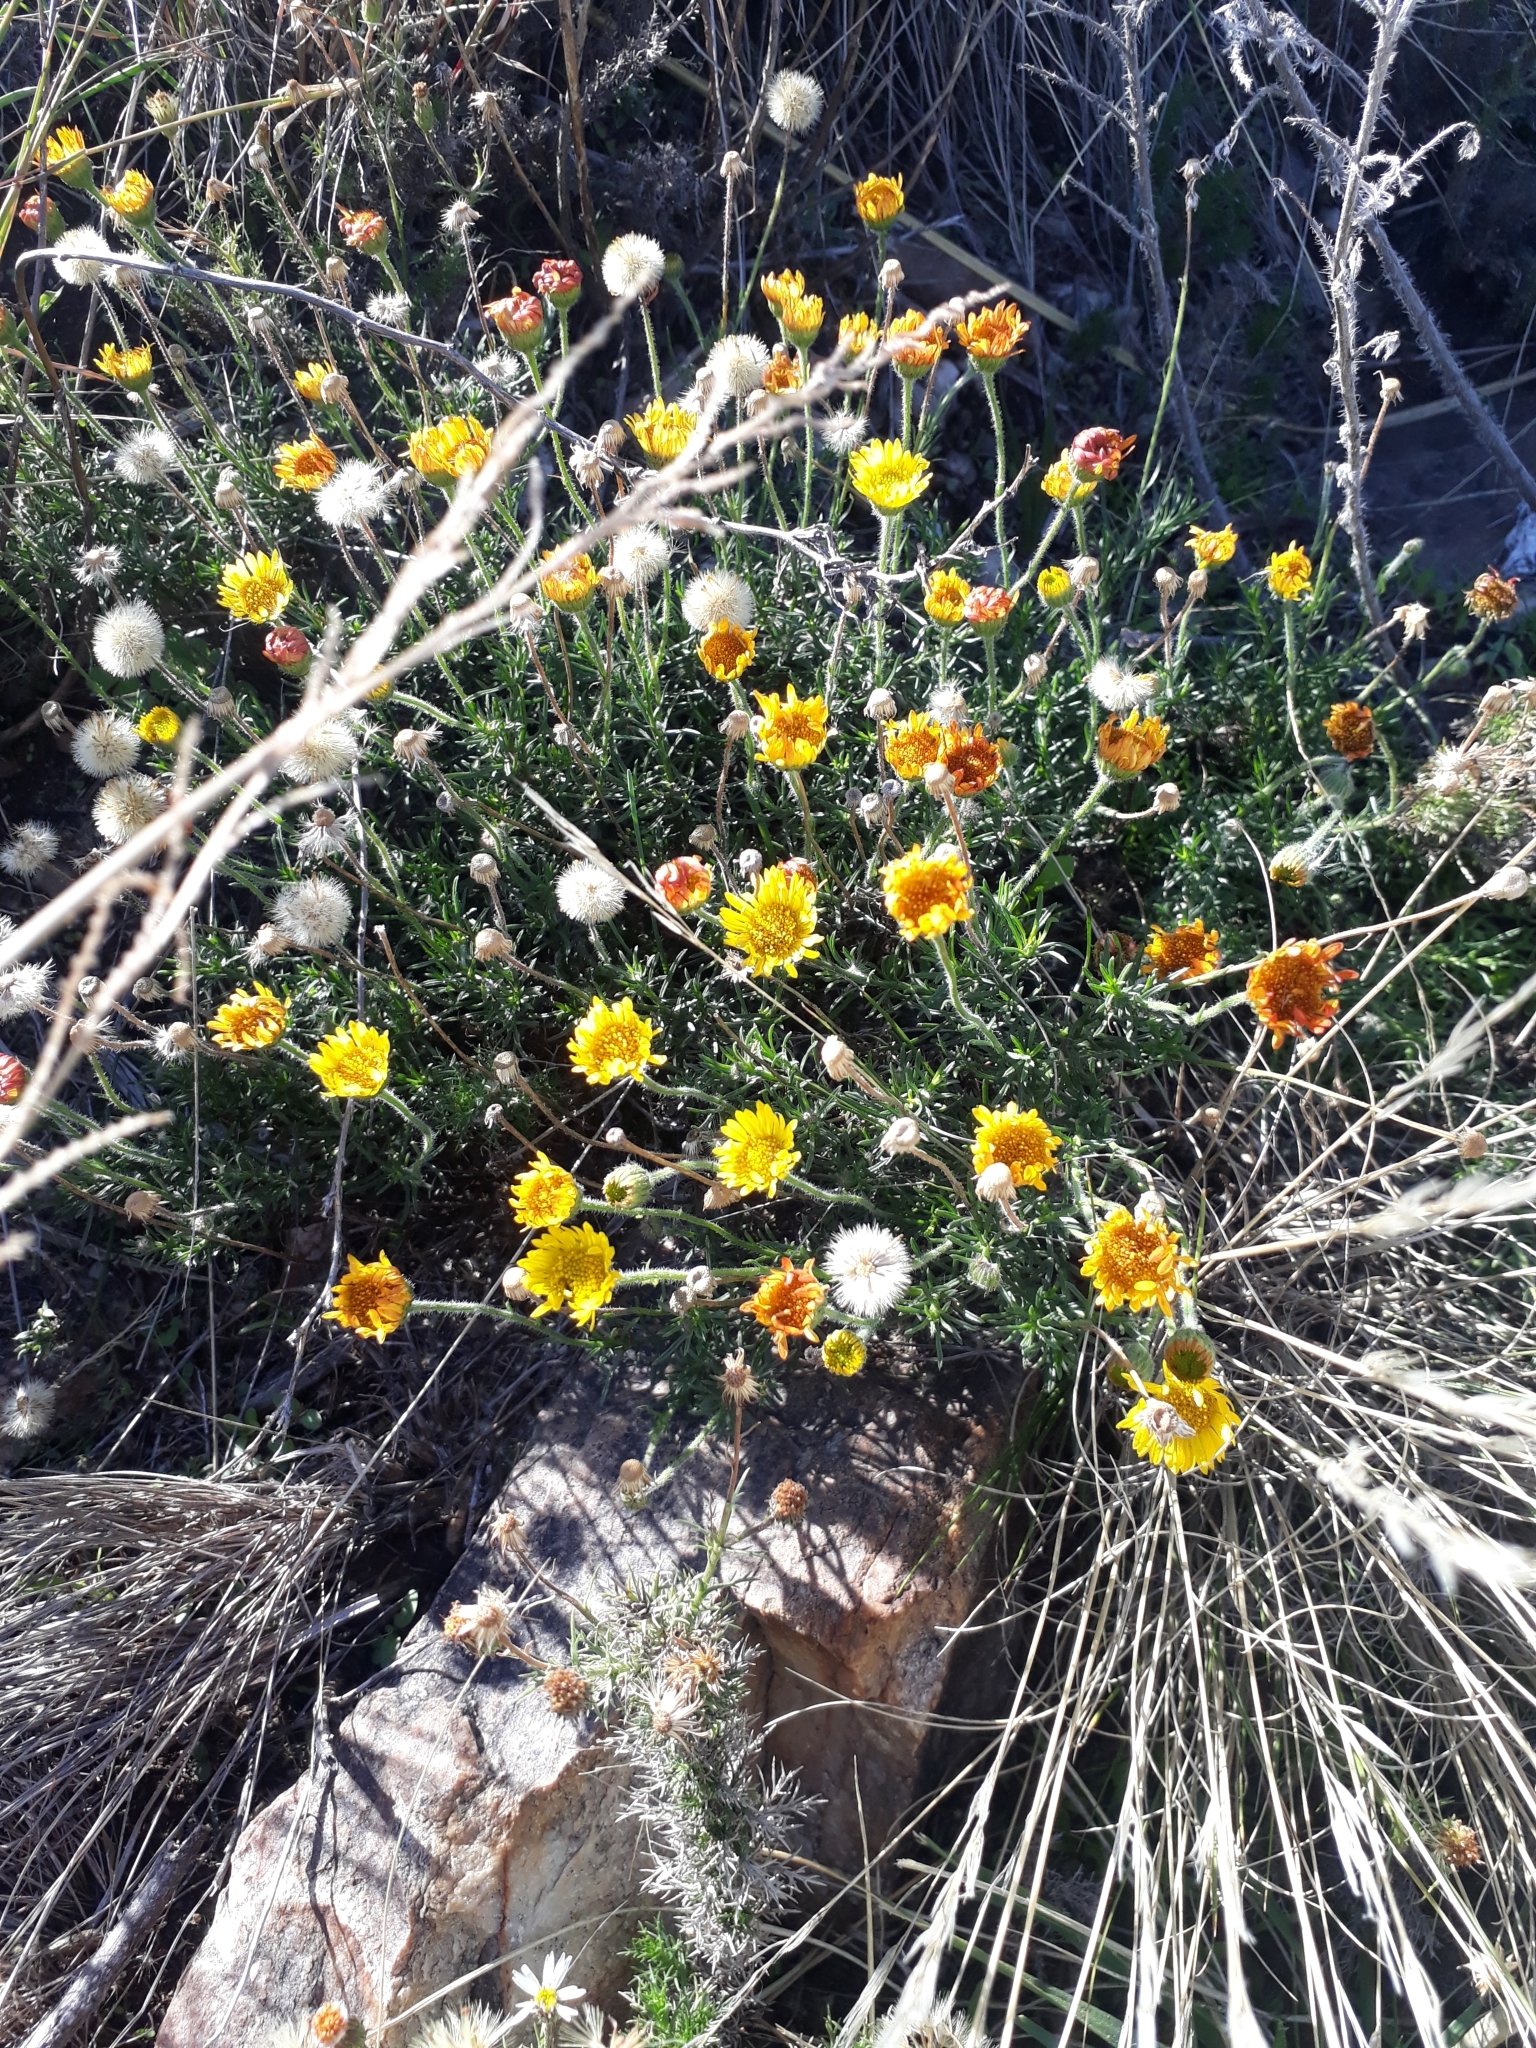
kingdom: Plantae
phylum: Tracheophyta
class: Magnoliopsida
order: Asterales
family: Asteraceae
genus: Neja
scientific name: Neja pinifolia
